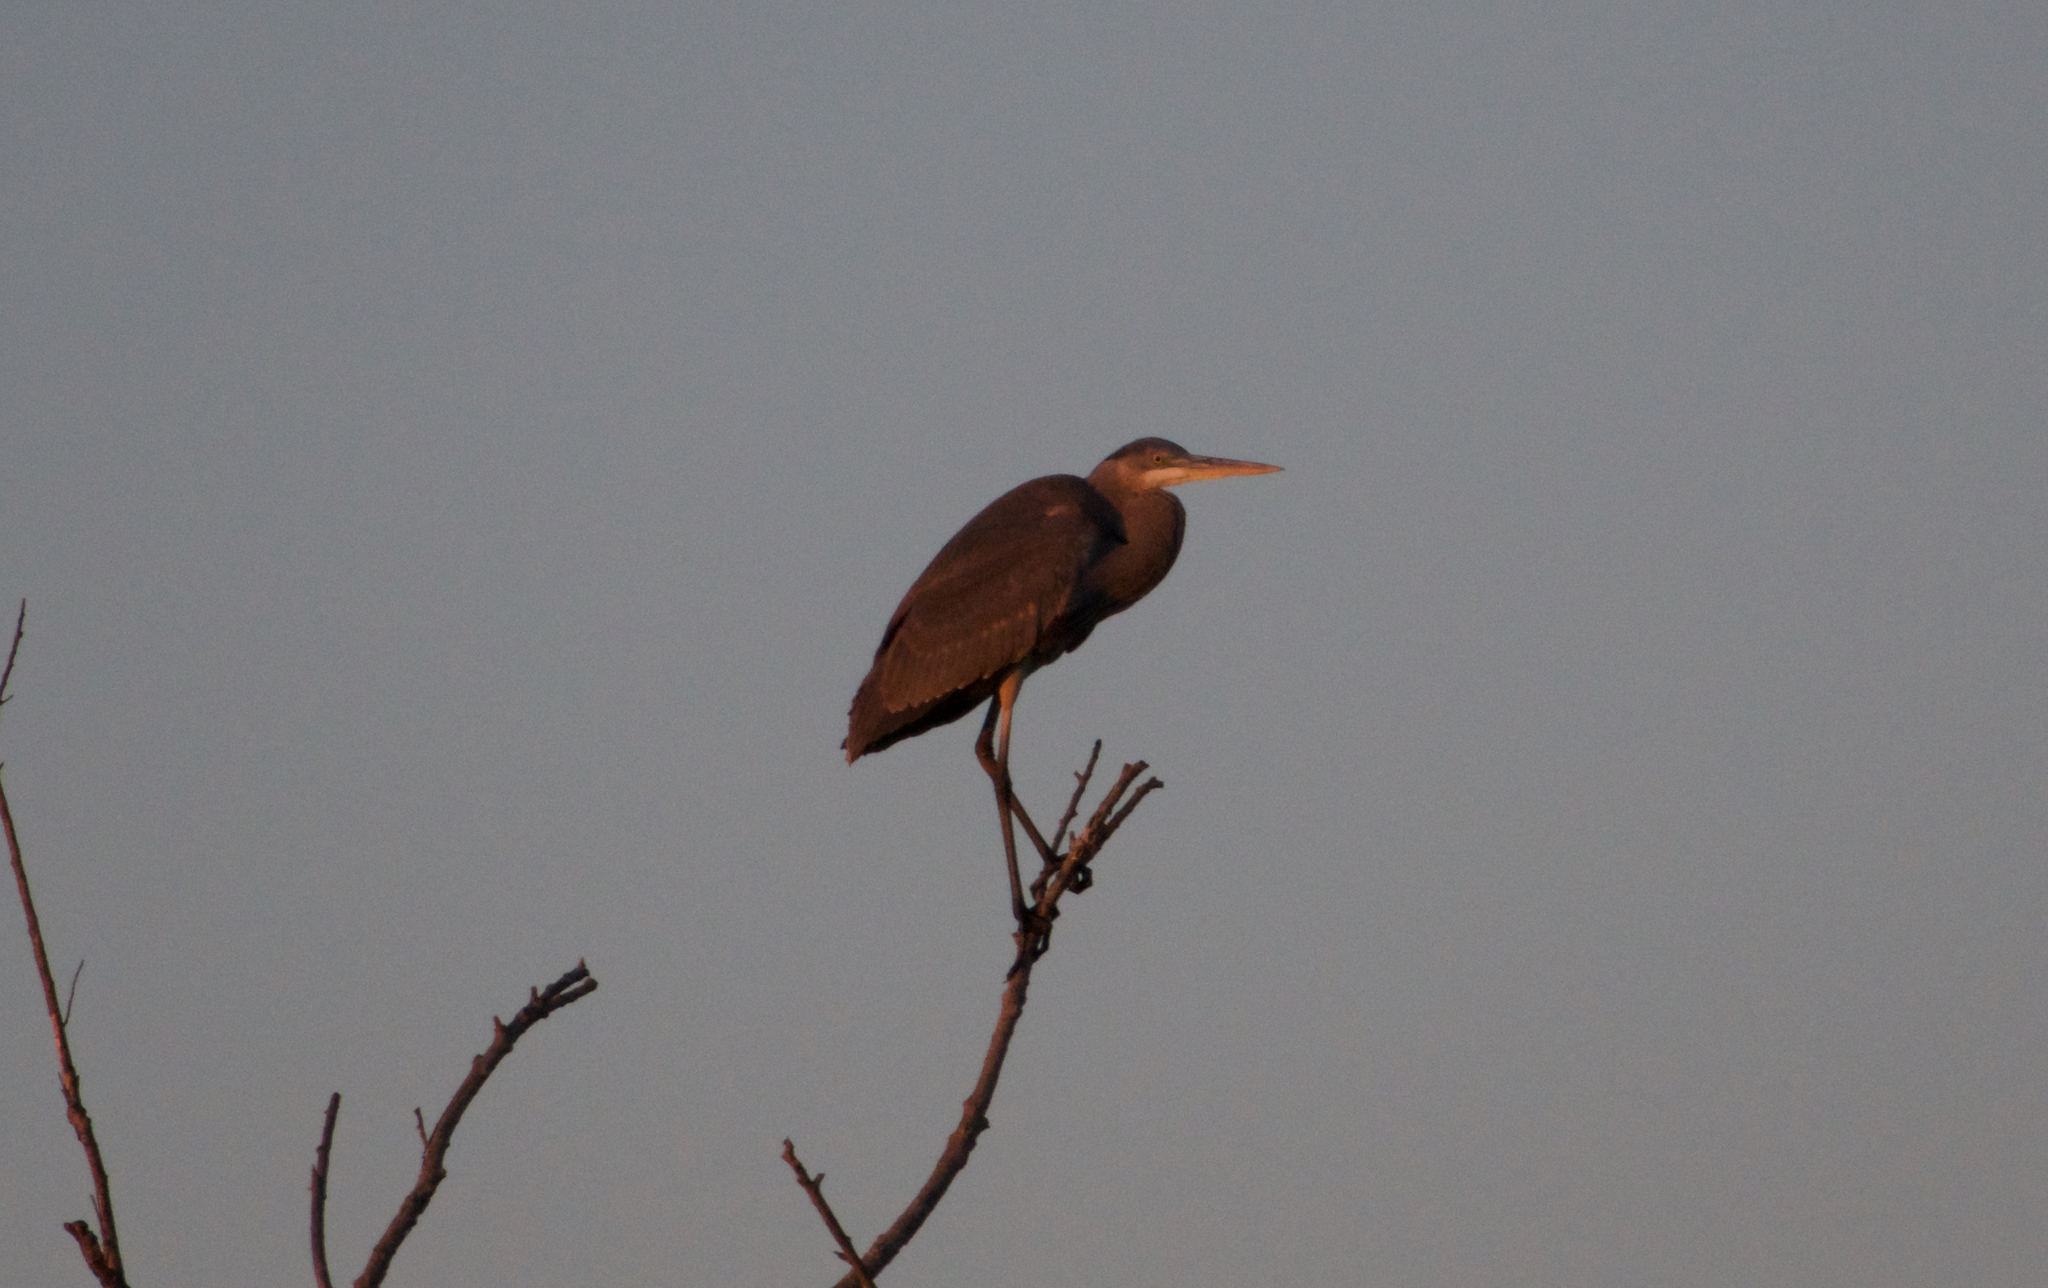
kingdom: Animalia
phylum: Chordata
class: Aves
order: Pelecaniformes
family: Ardeidae
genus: Ardea
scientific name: Ardea herodias
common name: Great blue heron
